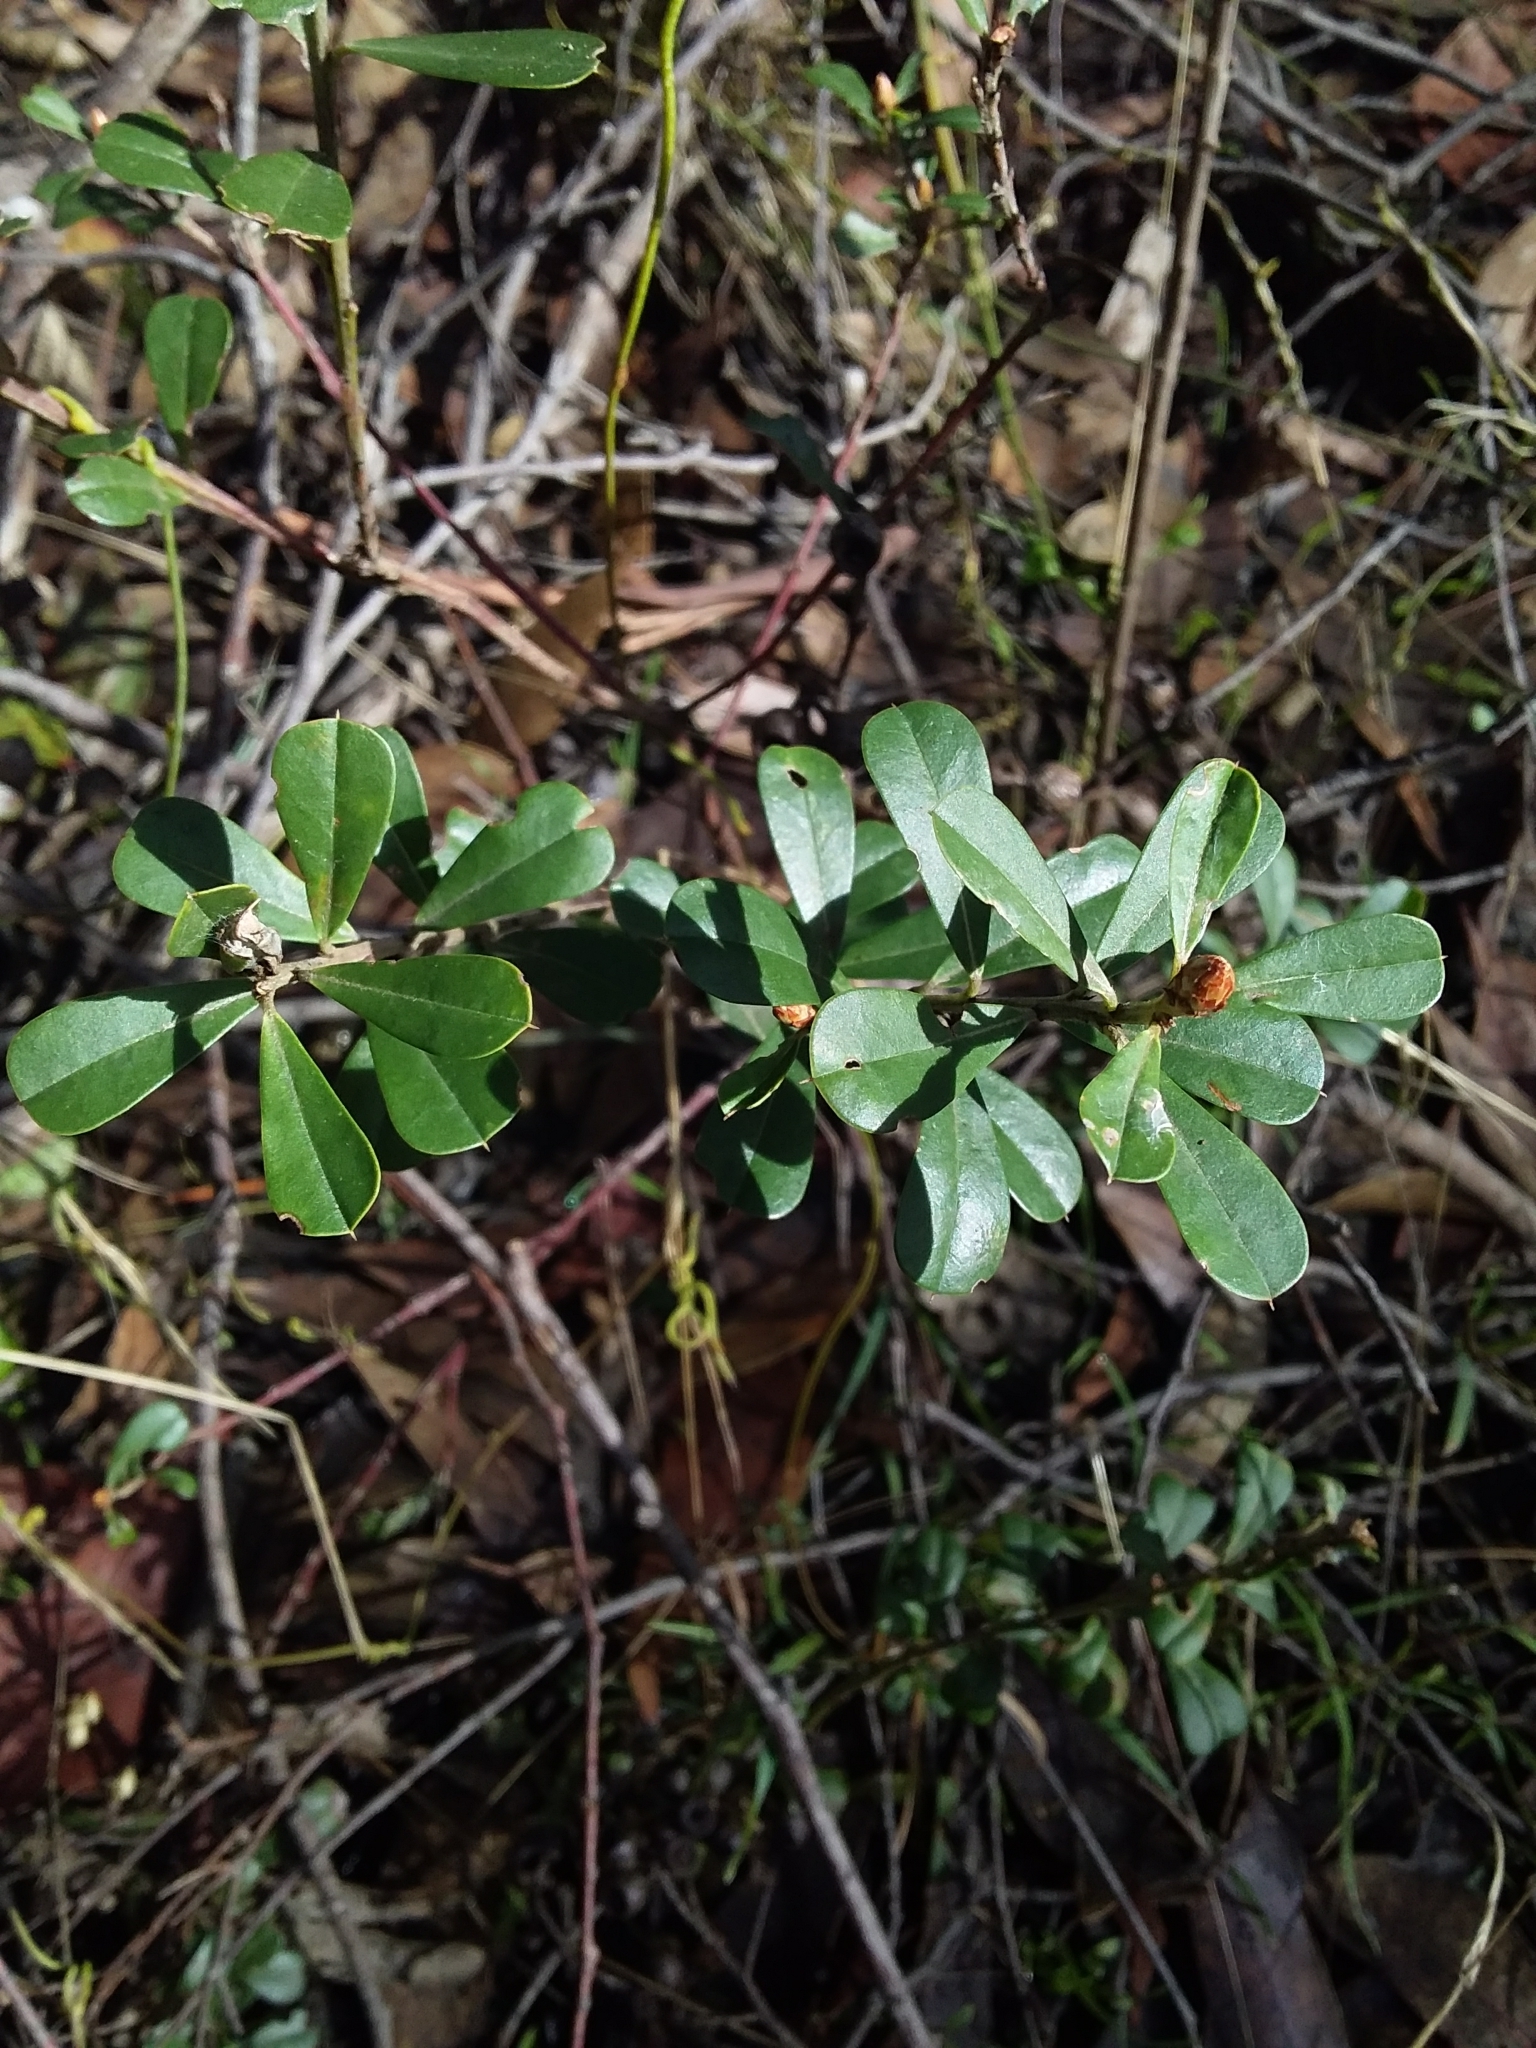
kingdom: Plantae
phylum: Tracheophyta
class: Magnoliopsida
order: Fabales
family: Fabaceae
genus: Pultenaea
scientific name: Pultenaea daphnoides
